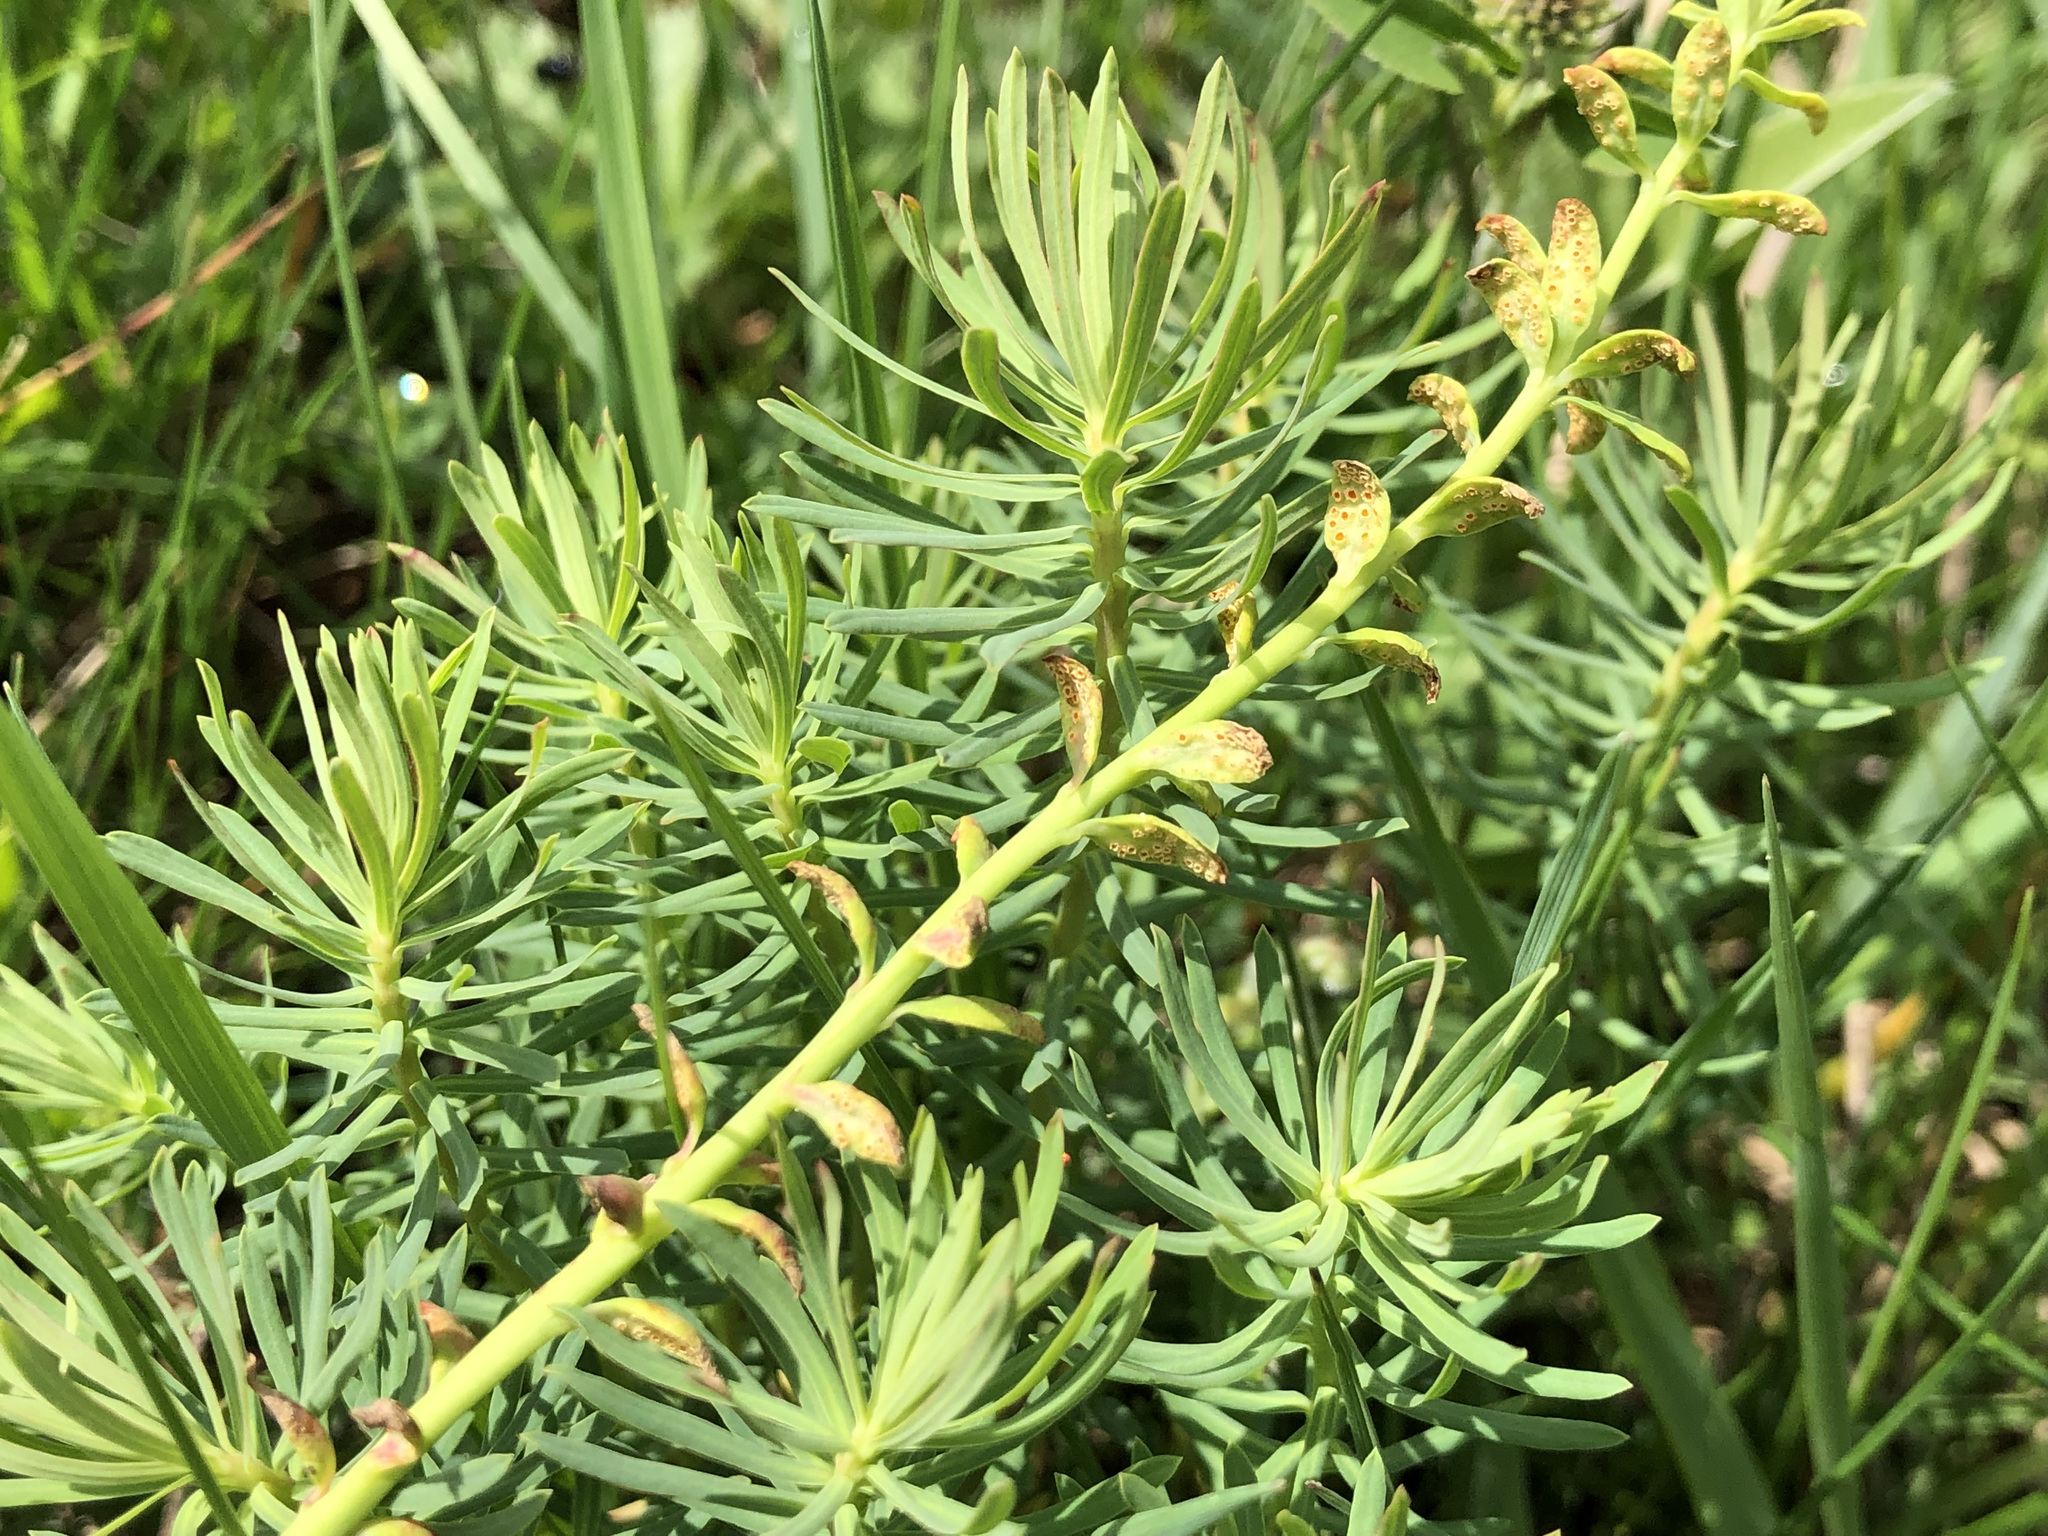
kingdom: Plantae
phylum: Tracheophyta
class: Magnoliopsida
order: Malpighiales
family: Euphorbiaceae
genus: Euphorbia
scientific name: Euphorbia cyparissias
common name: Cypress spurge
